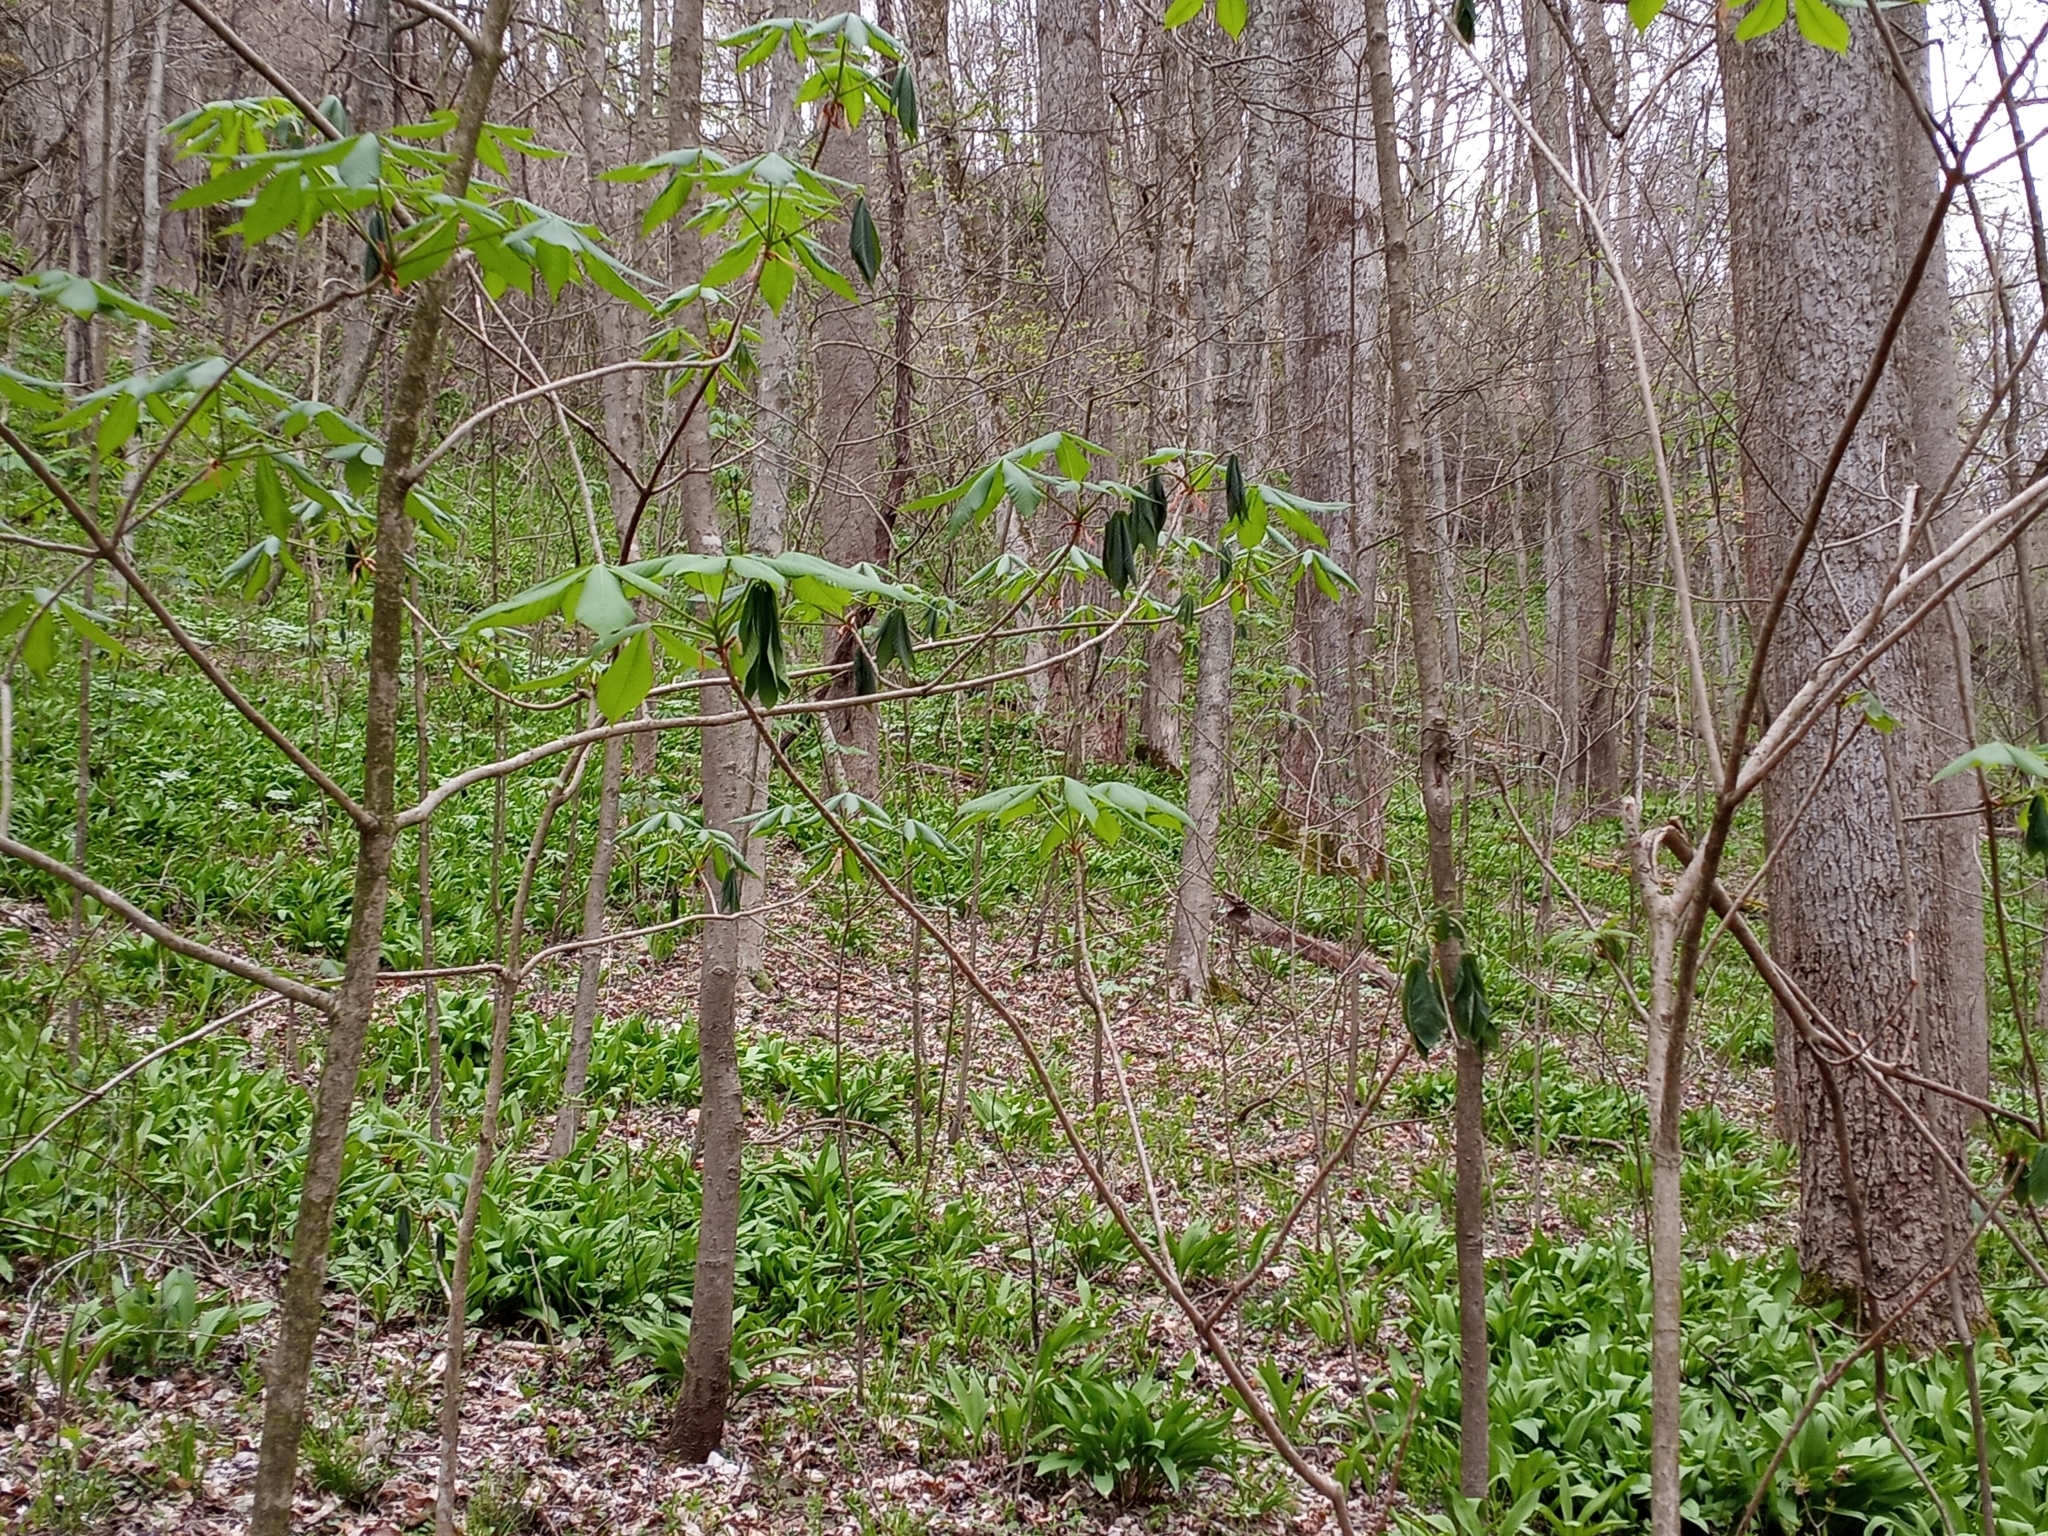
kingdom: Animalia
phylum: Arthropoda
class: Insecta
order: Lepidoptera
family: Tortricidae
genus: Zeiraphera
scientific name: Zeiraphera claypoleana
